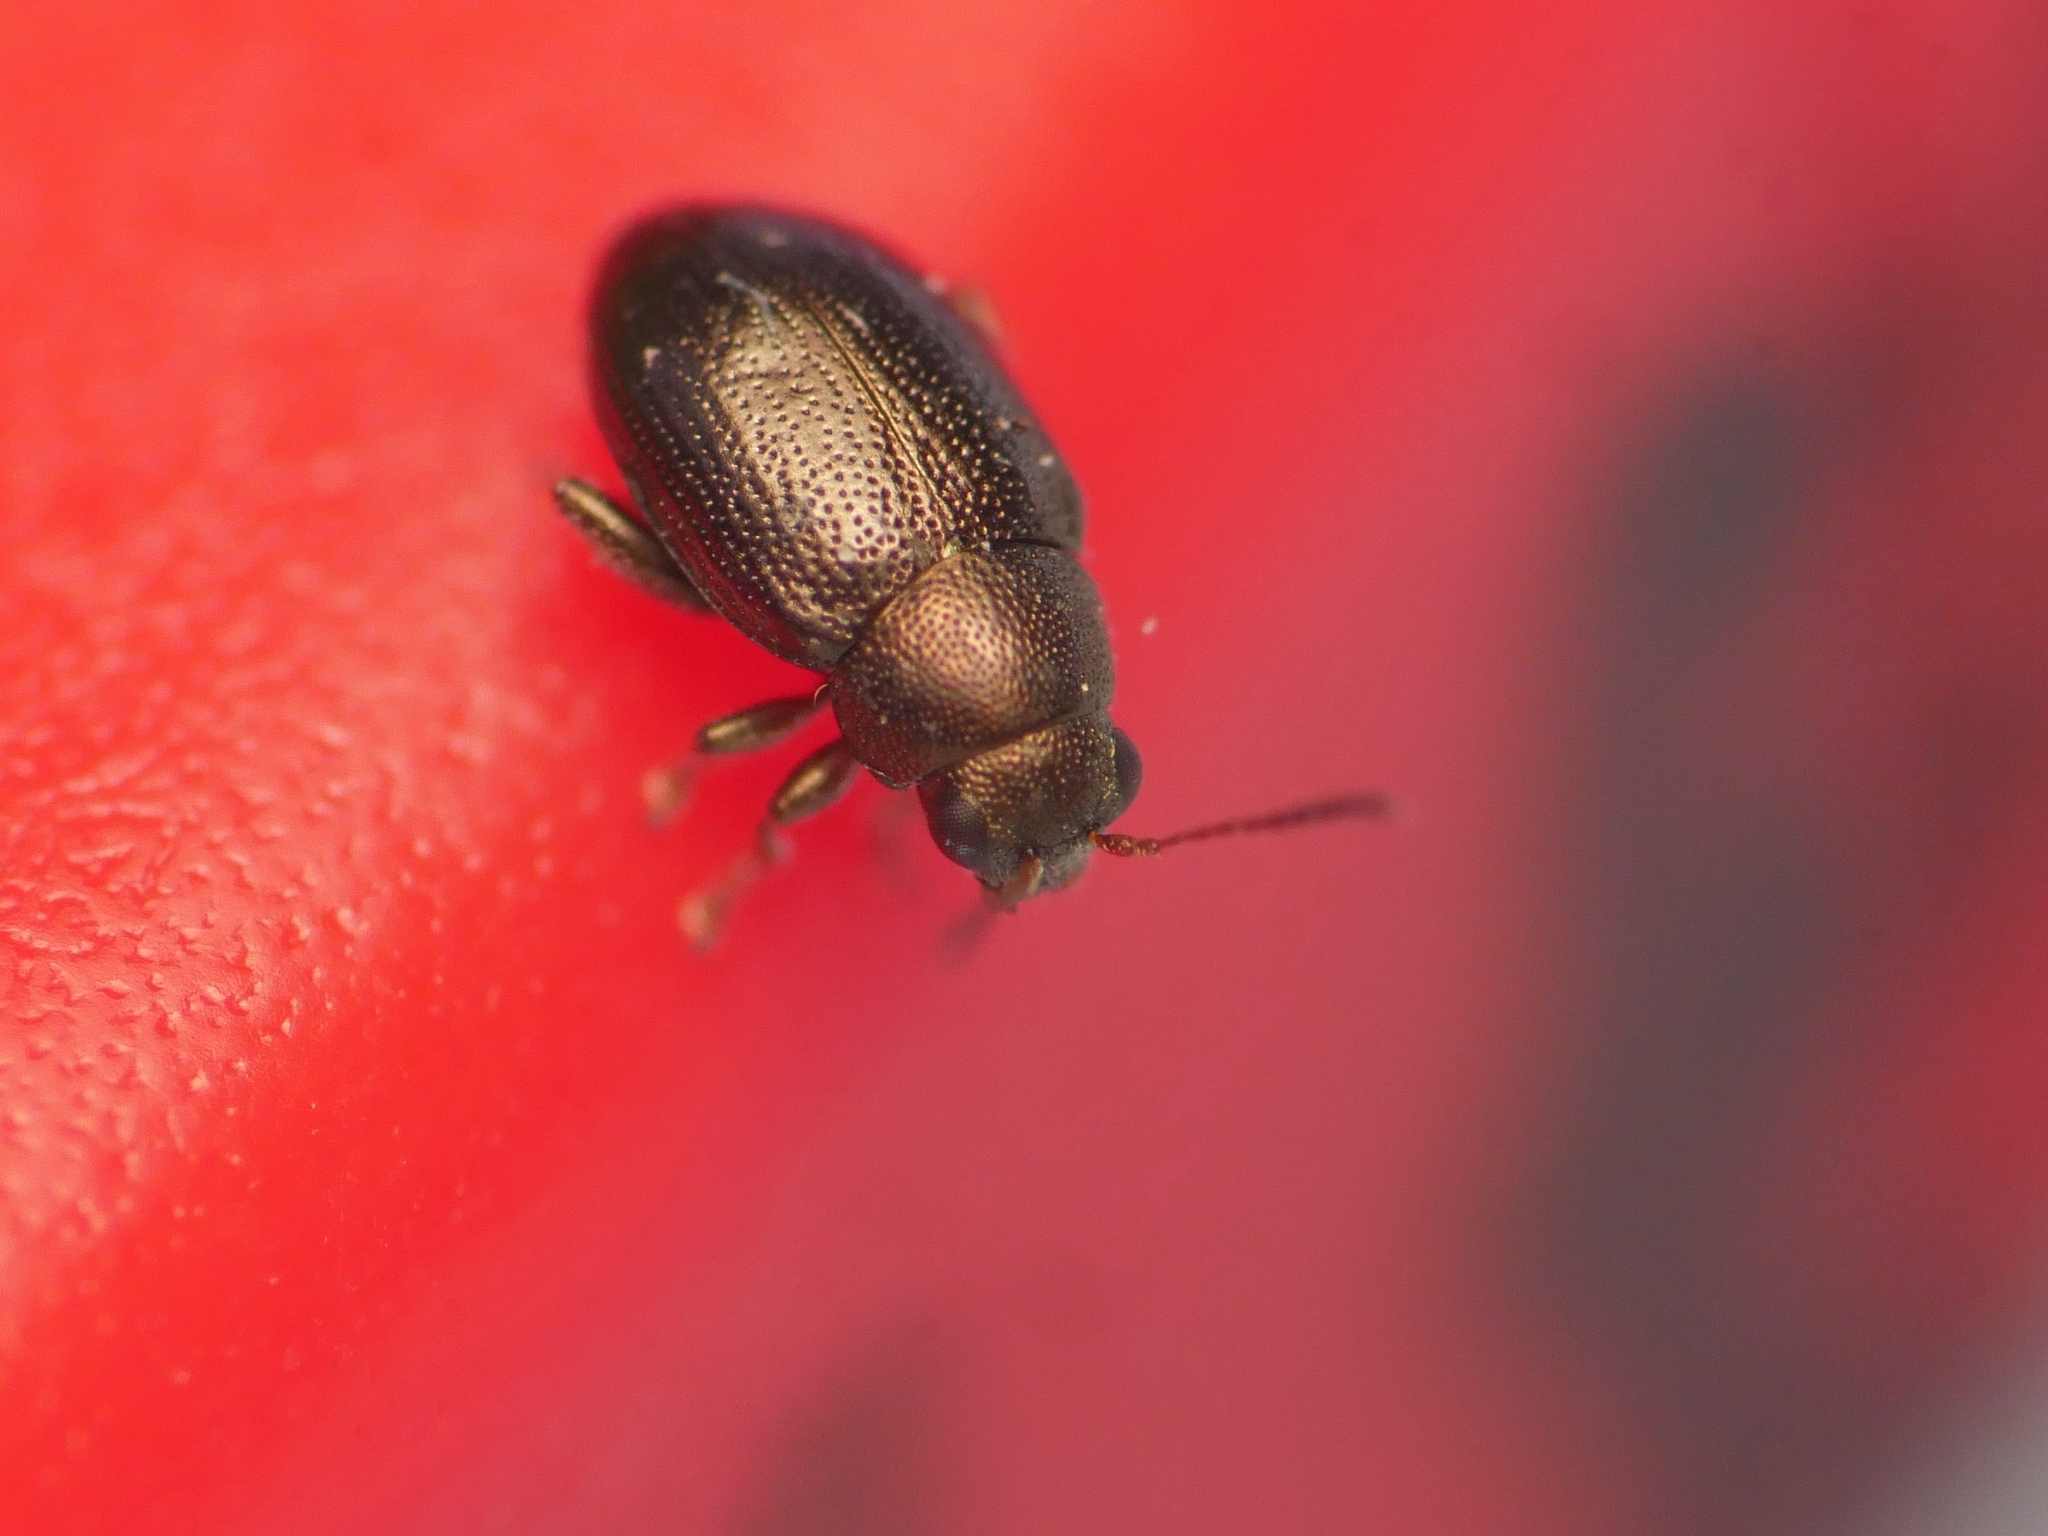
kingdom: Animalia
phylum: Arthropoda
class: Insecta
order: Coleoptera
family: Chrysomelidae
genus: Chaetocnema
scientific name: Chaetocnema hortensis
